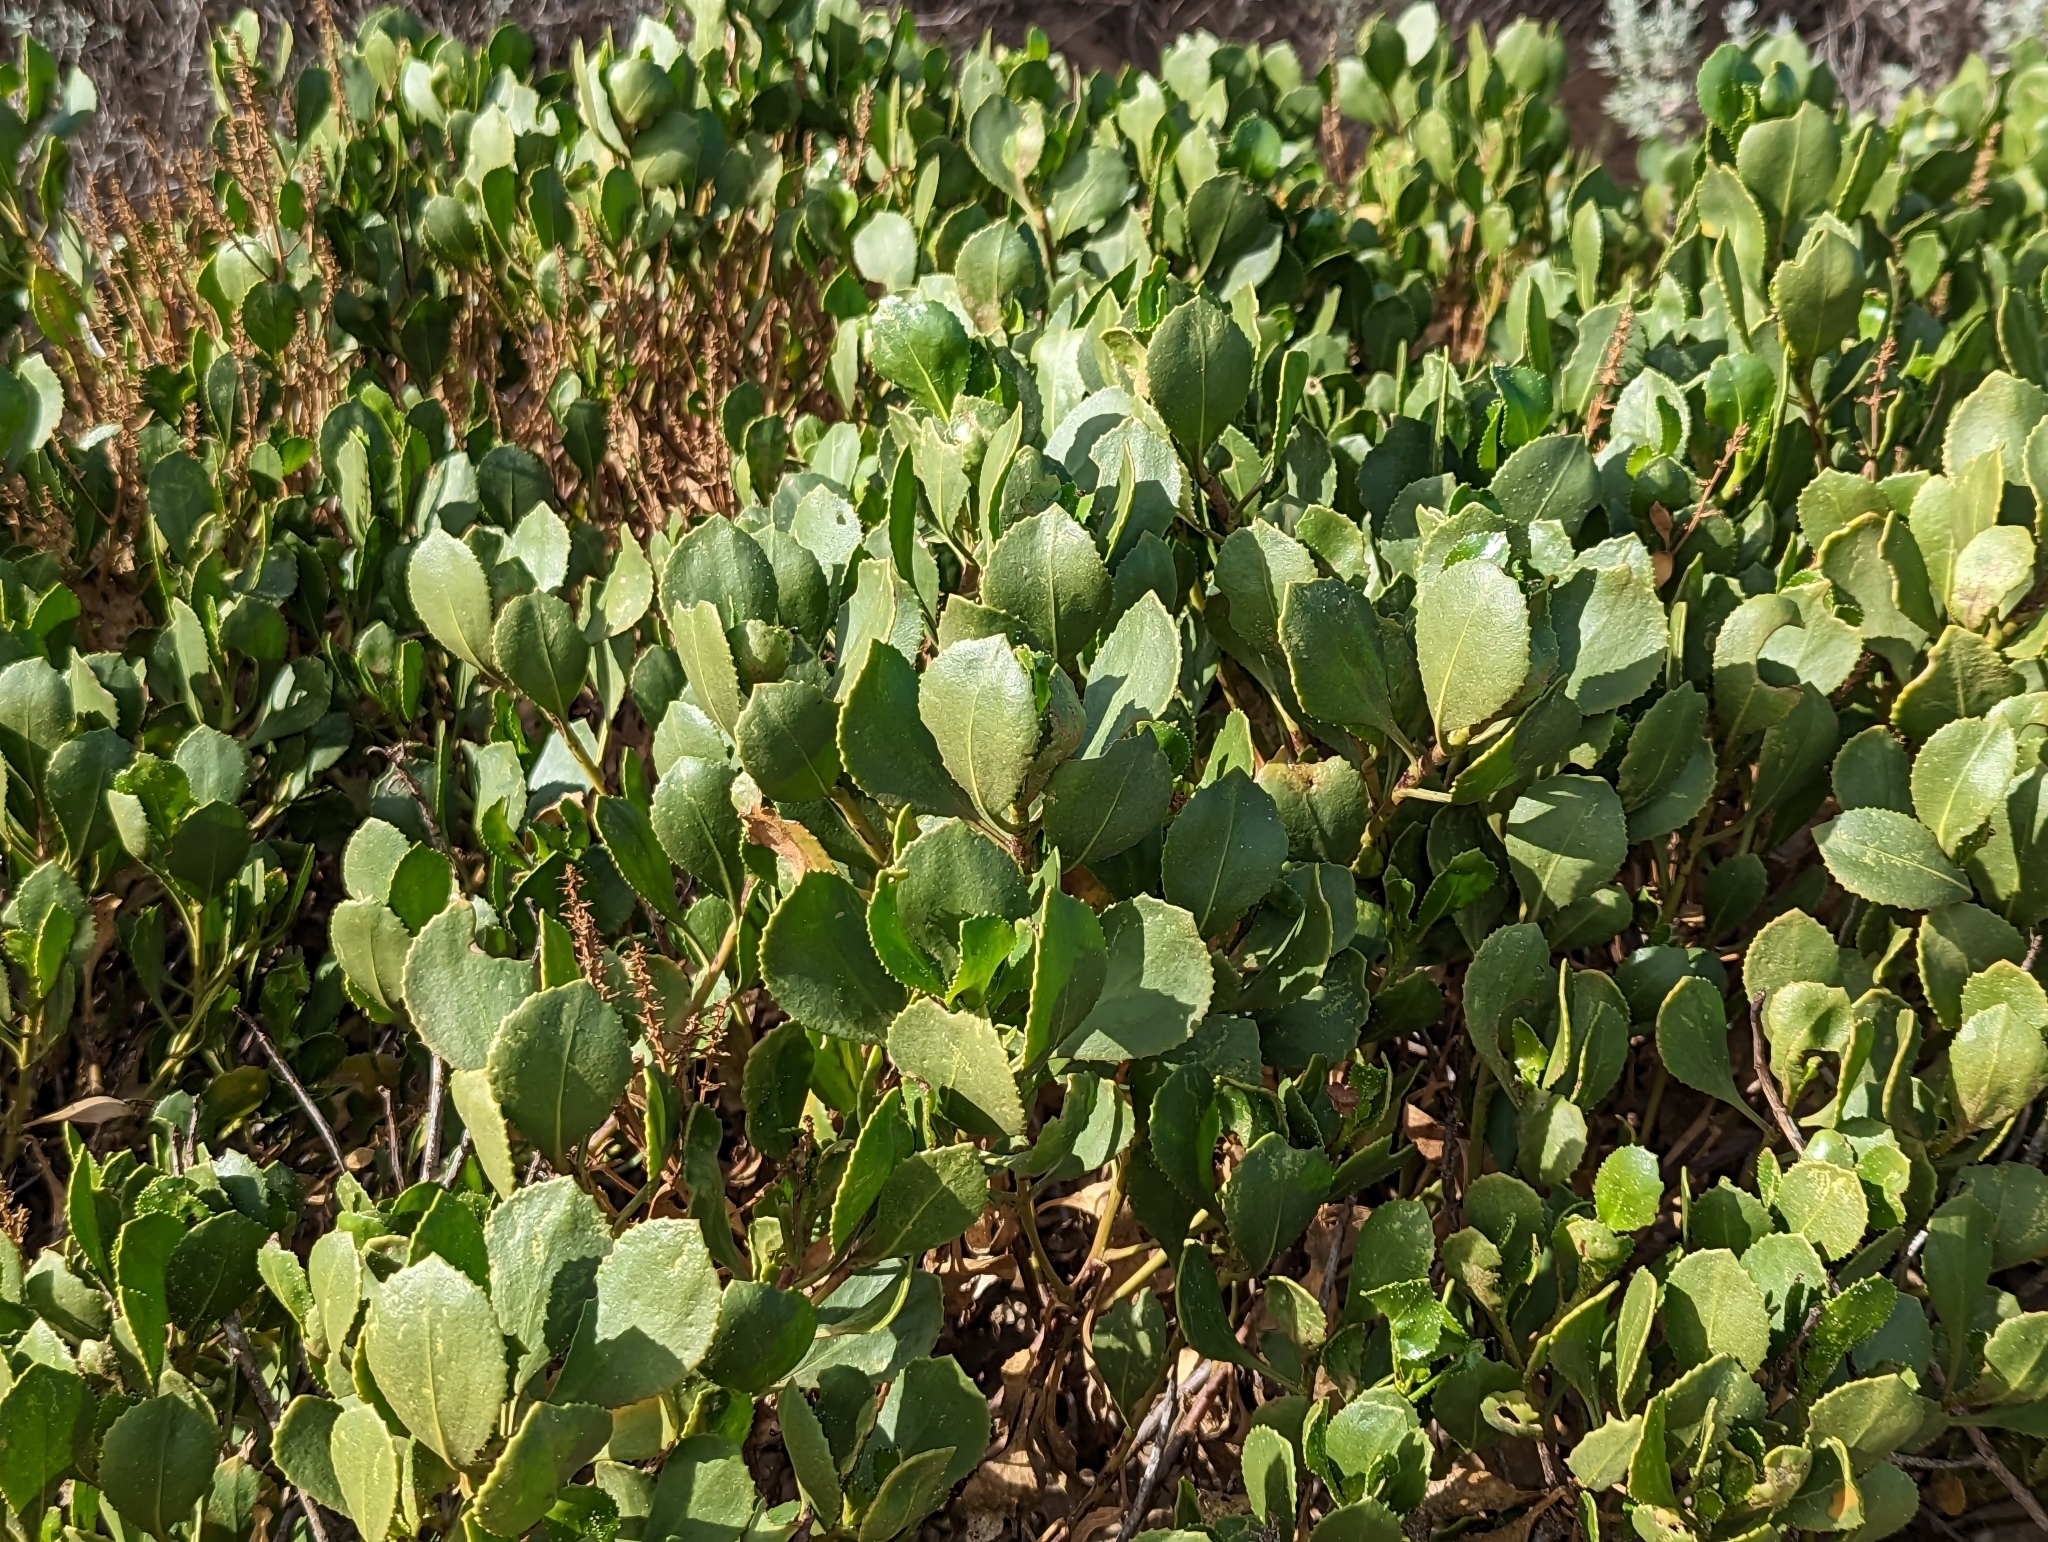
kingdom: Plantae
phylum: Tracheophyta
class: Magnoliopsida
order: Asterales
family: Goodeniaceae
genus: Scaevola
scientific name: Scaevola crassifolia
